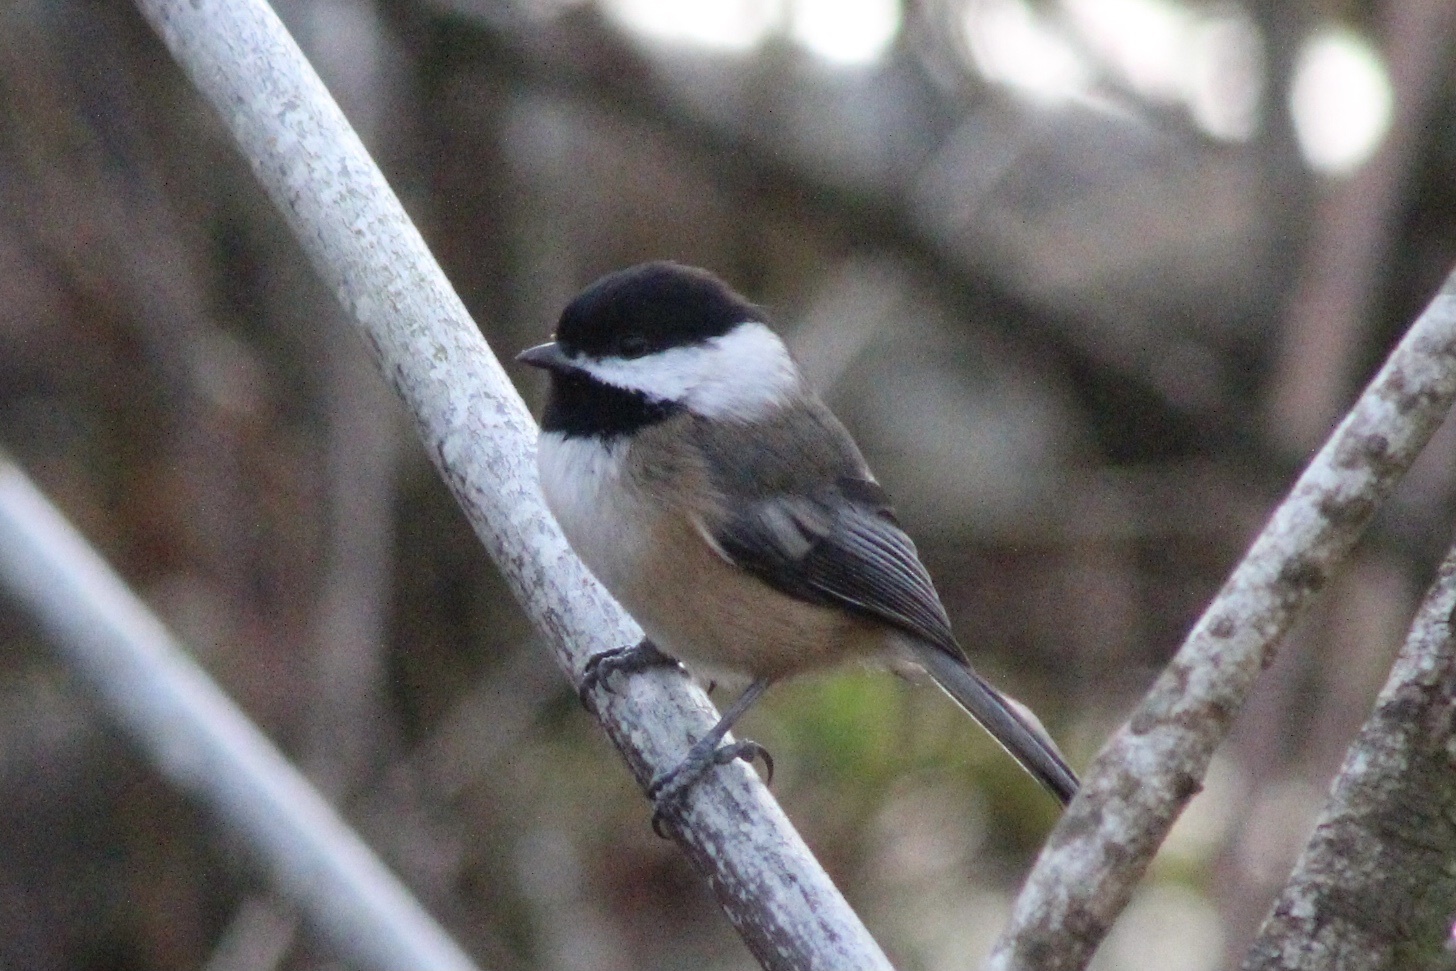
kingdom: Animalia
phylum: Chordata
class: Aves
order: Passeriformes
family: Paridae
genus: Poecile
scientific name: Poecile atricapillus
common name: Black-capped chickadee
